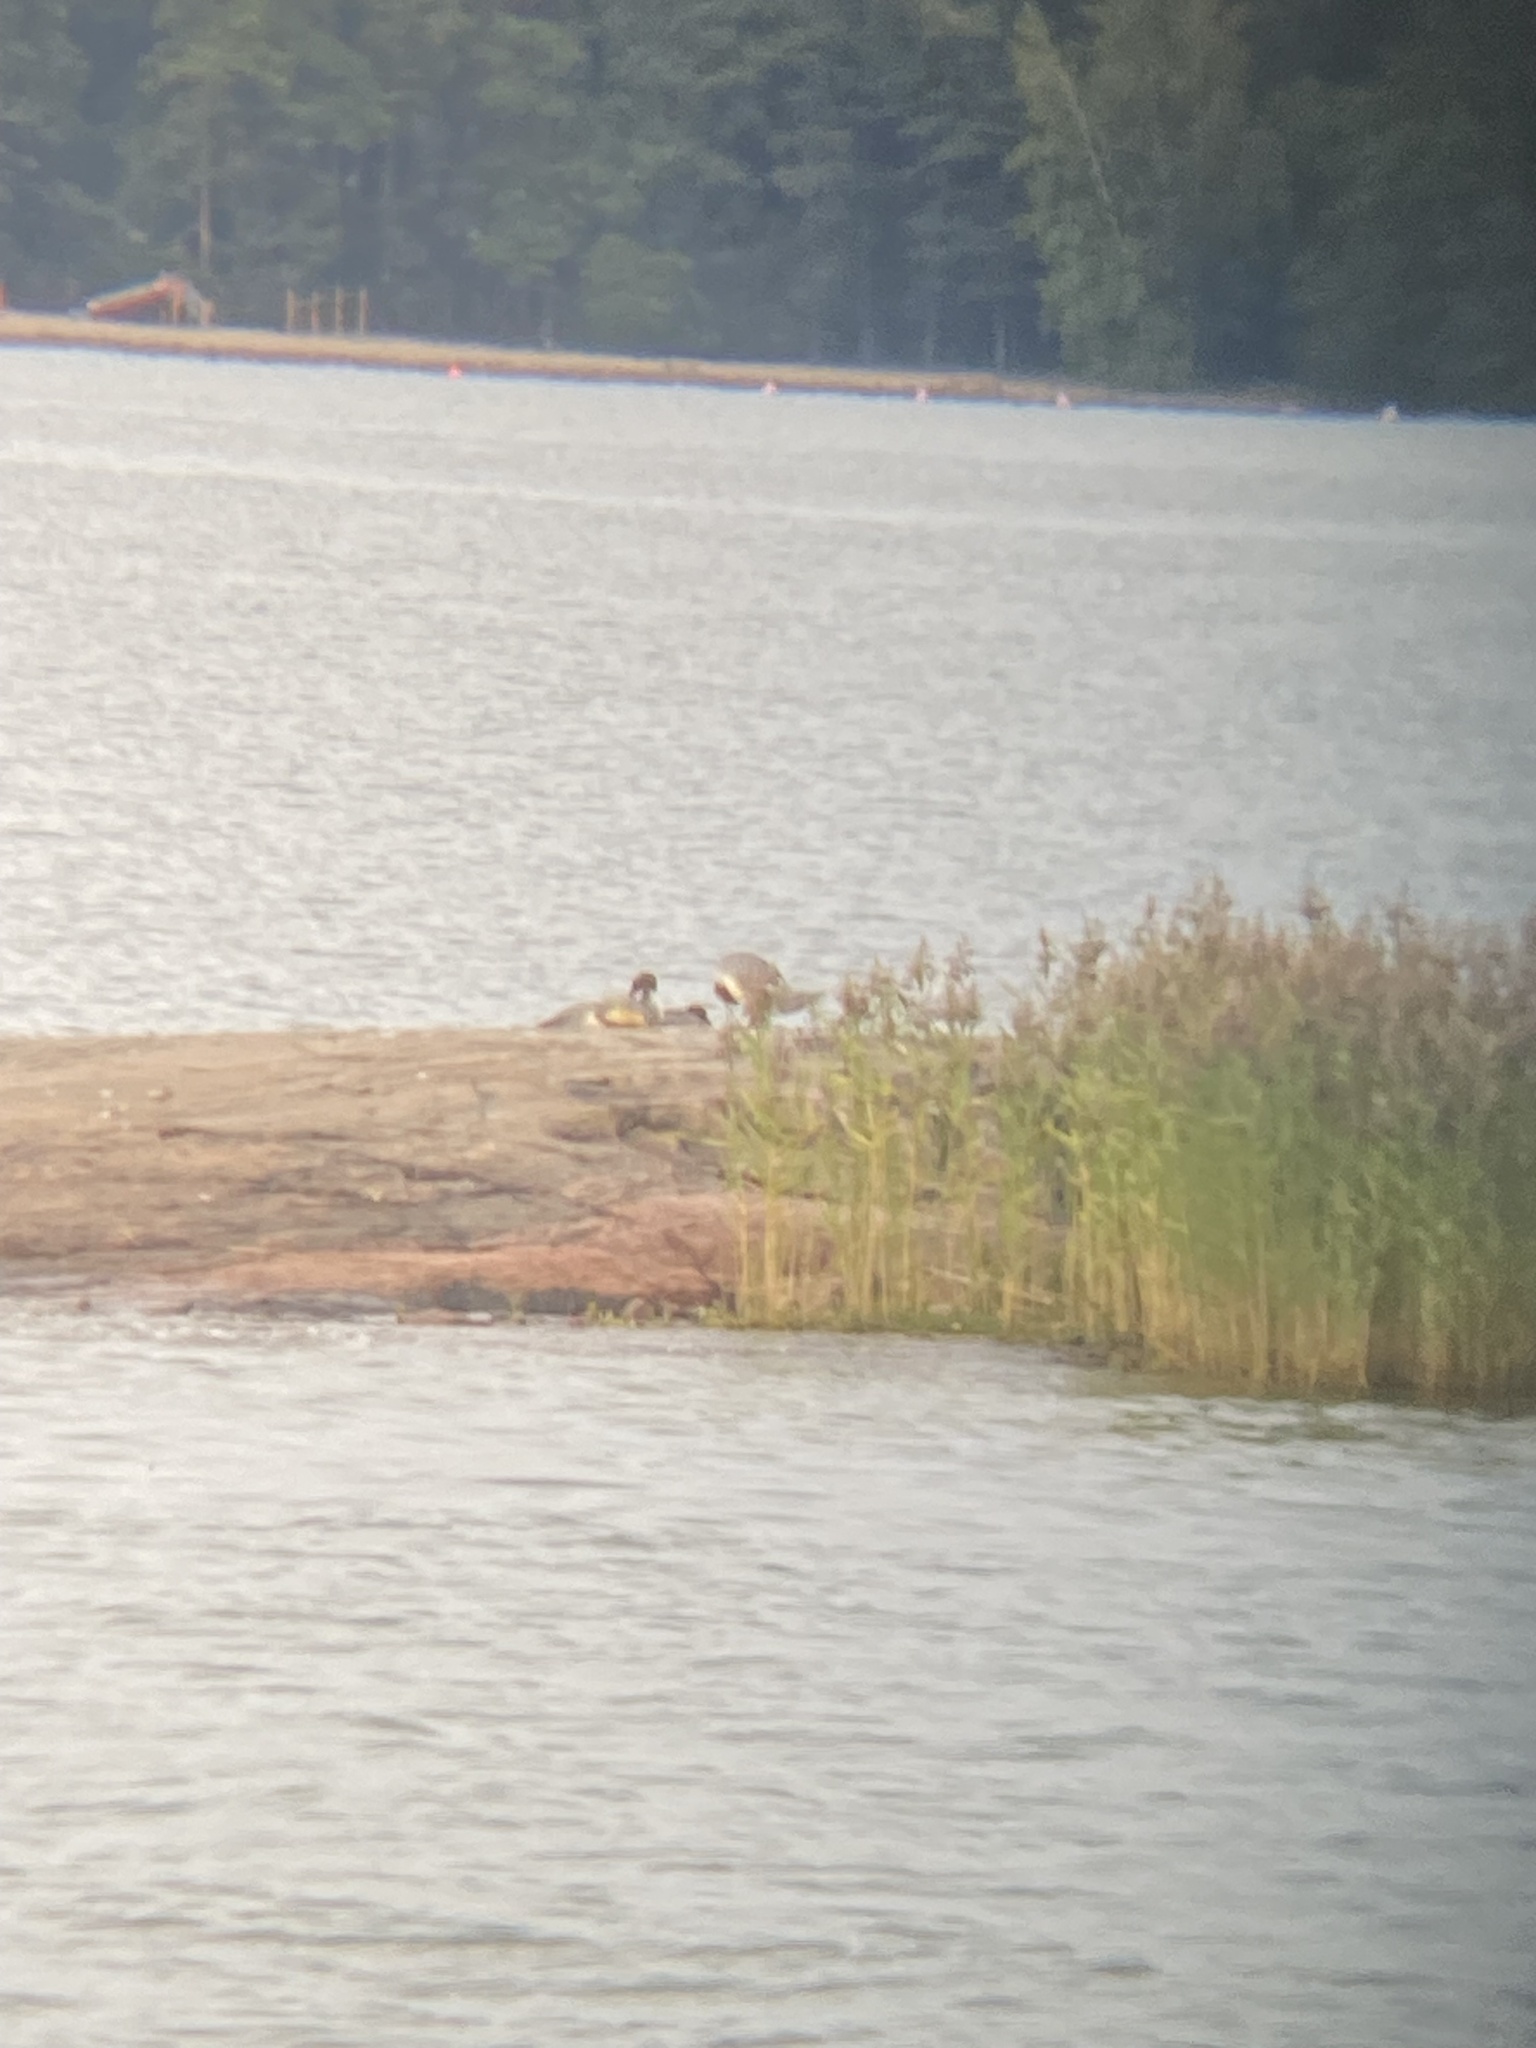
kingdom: Animalia
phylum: Chordata
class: Aves
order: Anseriformes
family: Anatidae
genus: Mergus
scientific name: Mergus merganser
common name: Common merganser
